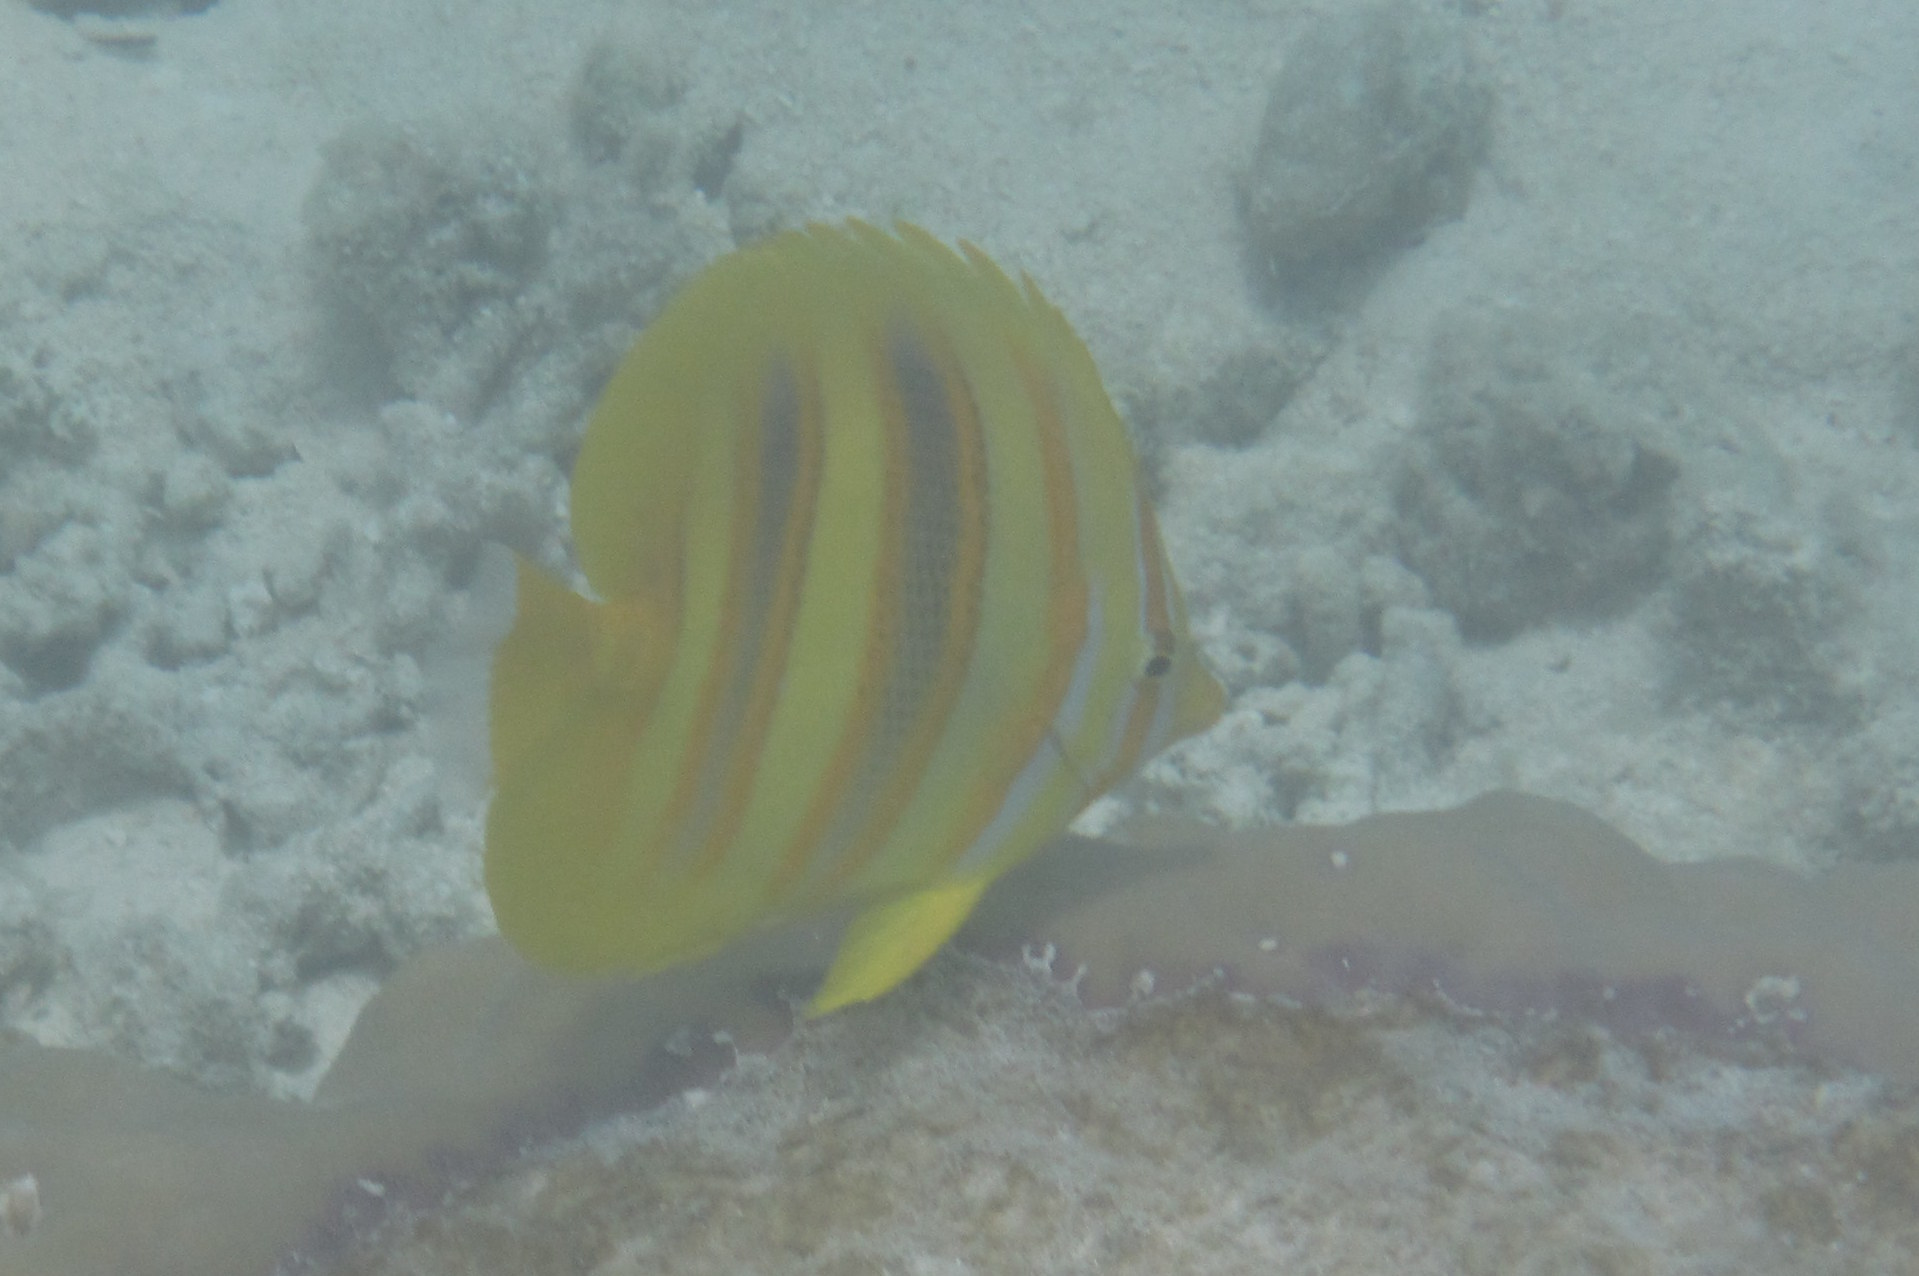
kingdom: Animalia
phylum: Chordata
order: Perciformes
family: Chaetodontidae
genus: Chaetodon
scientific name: Chaetodon rainfordi
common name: Rainford's butterflyfish
